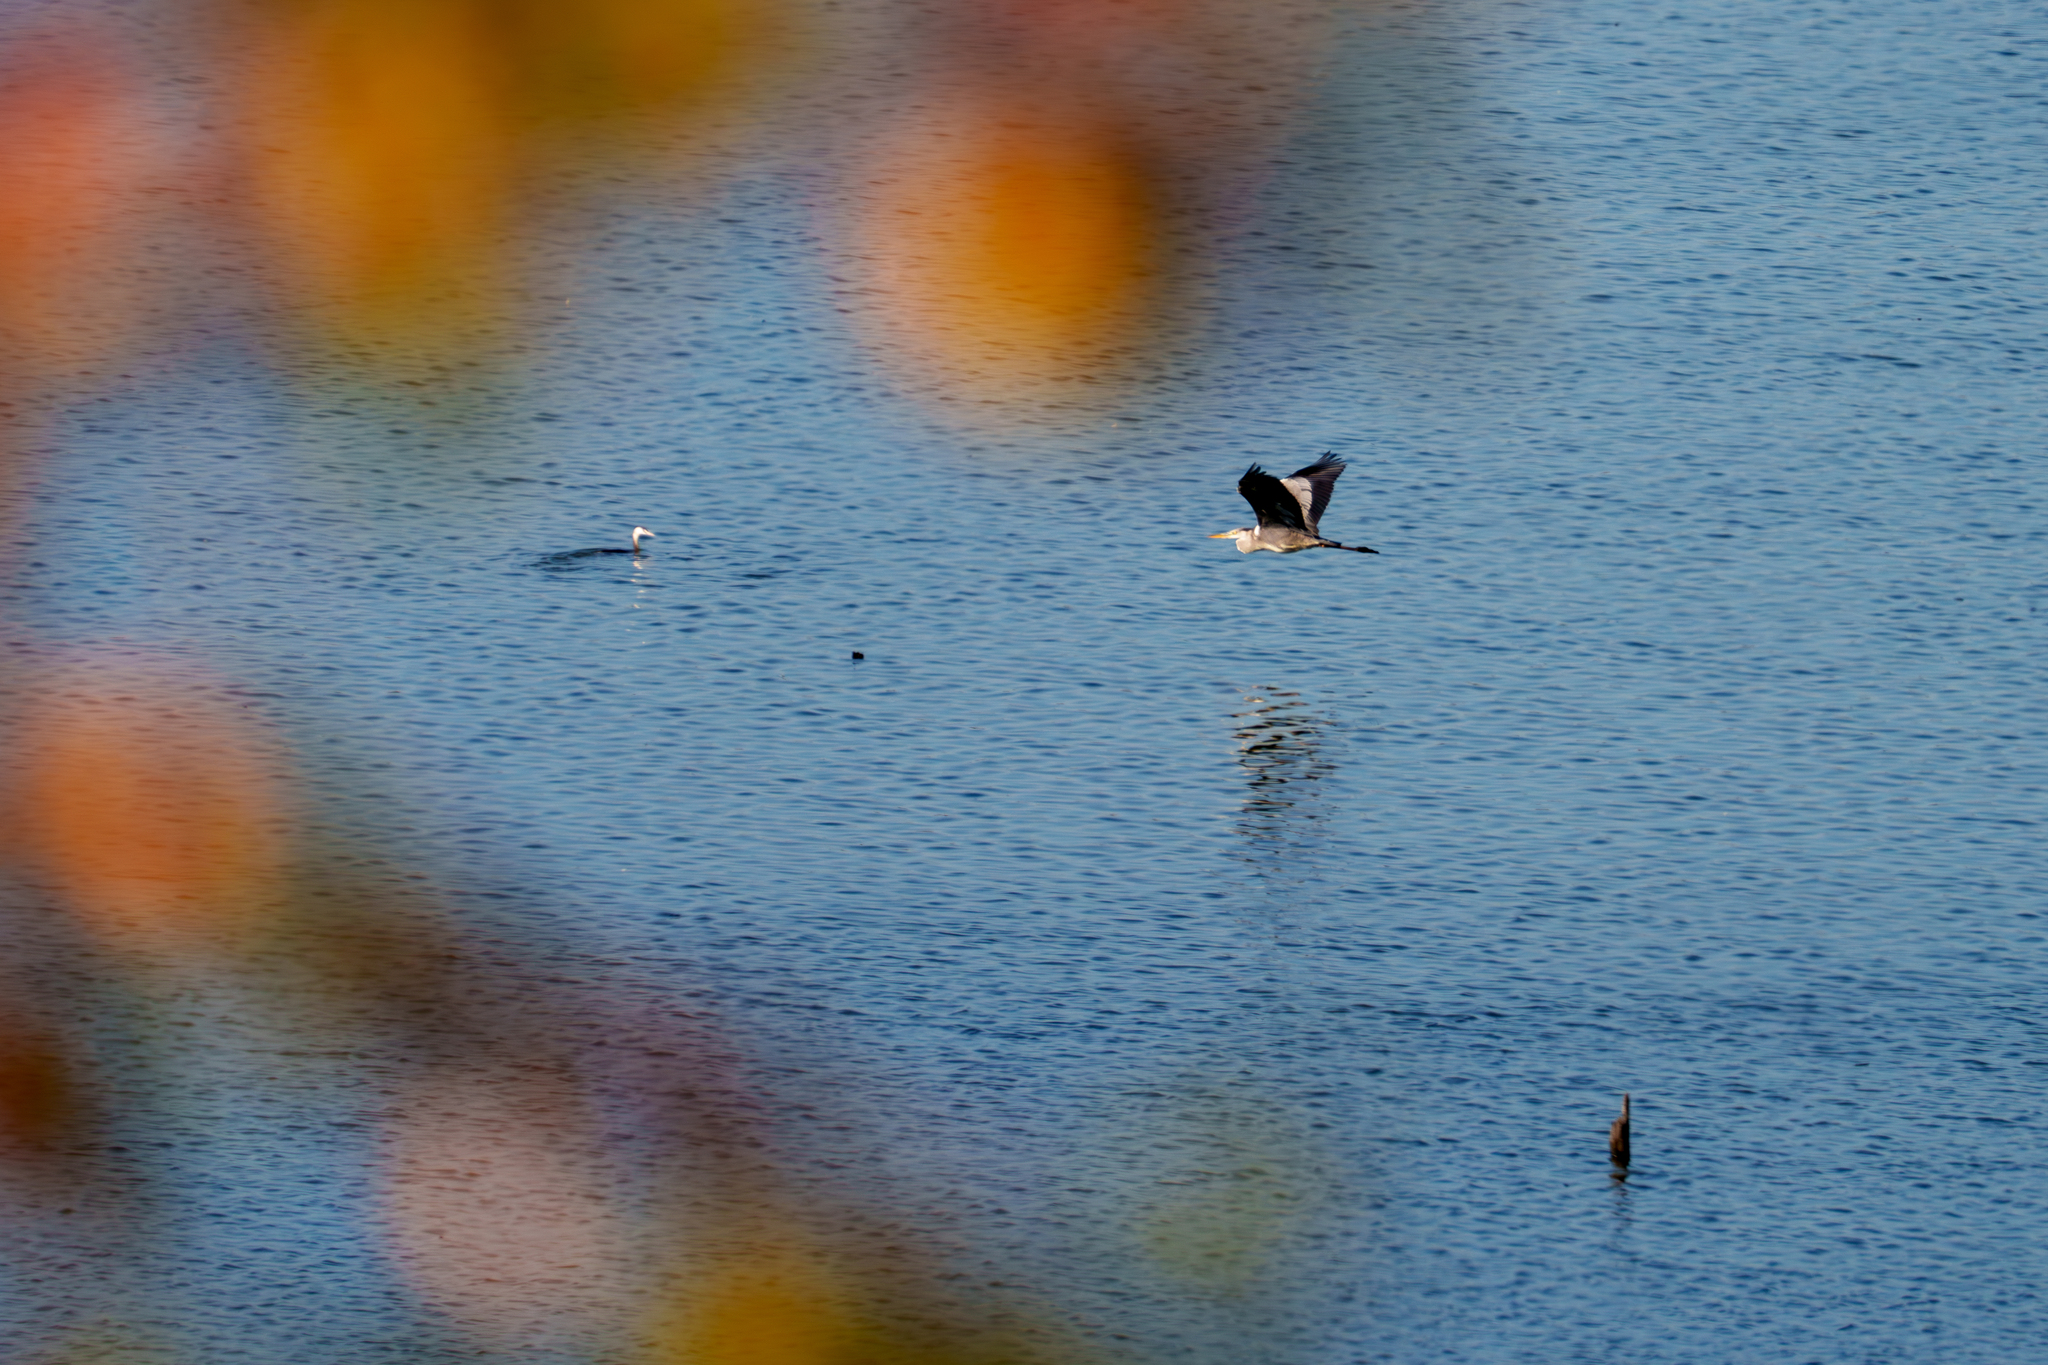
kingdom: Animalia
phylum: Chordata
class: Aves
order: Pelecaniformes
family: Ardeidae
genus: Ardea
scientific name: Ardea cinerea
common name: Grey heron
